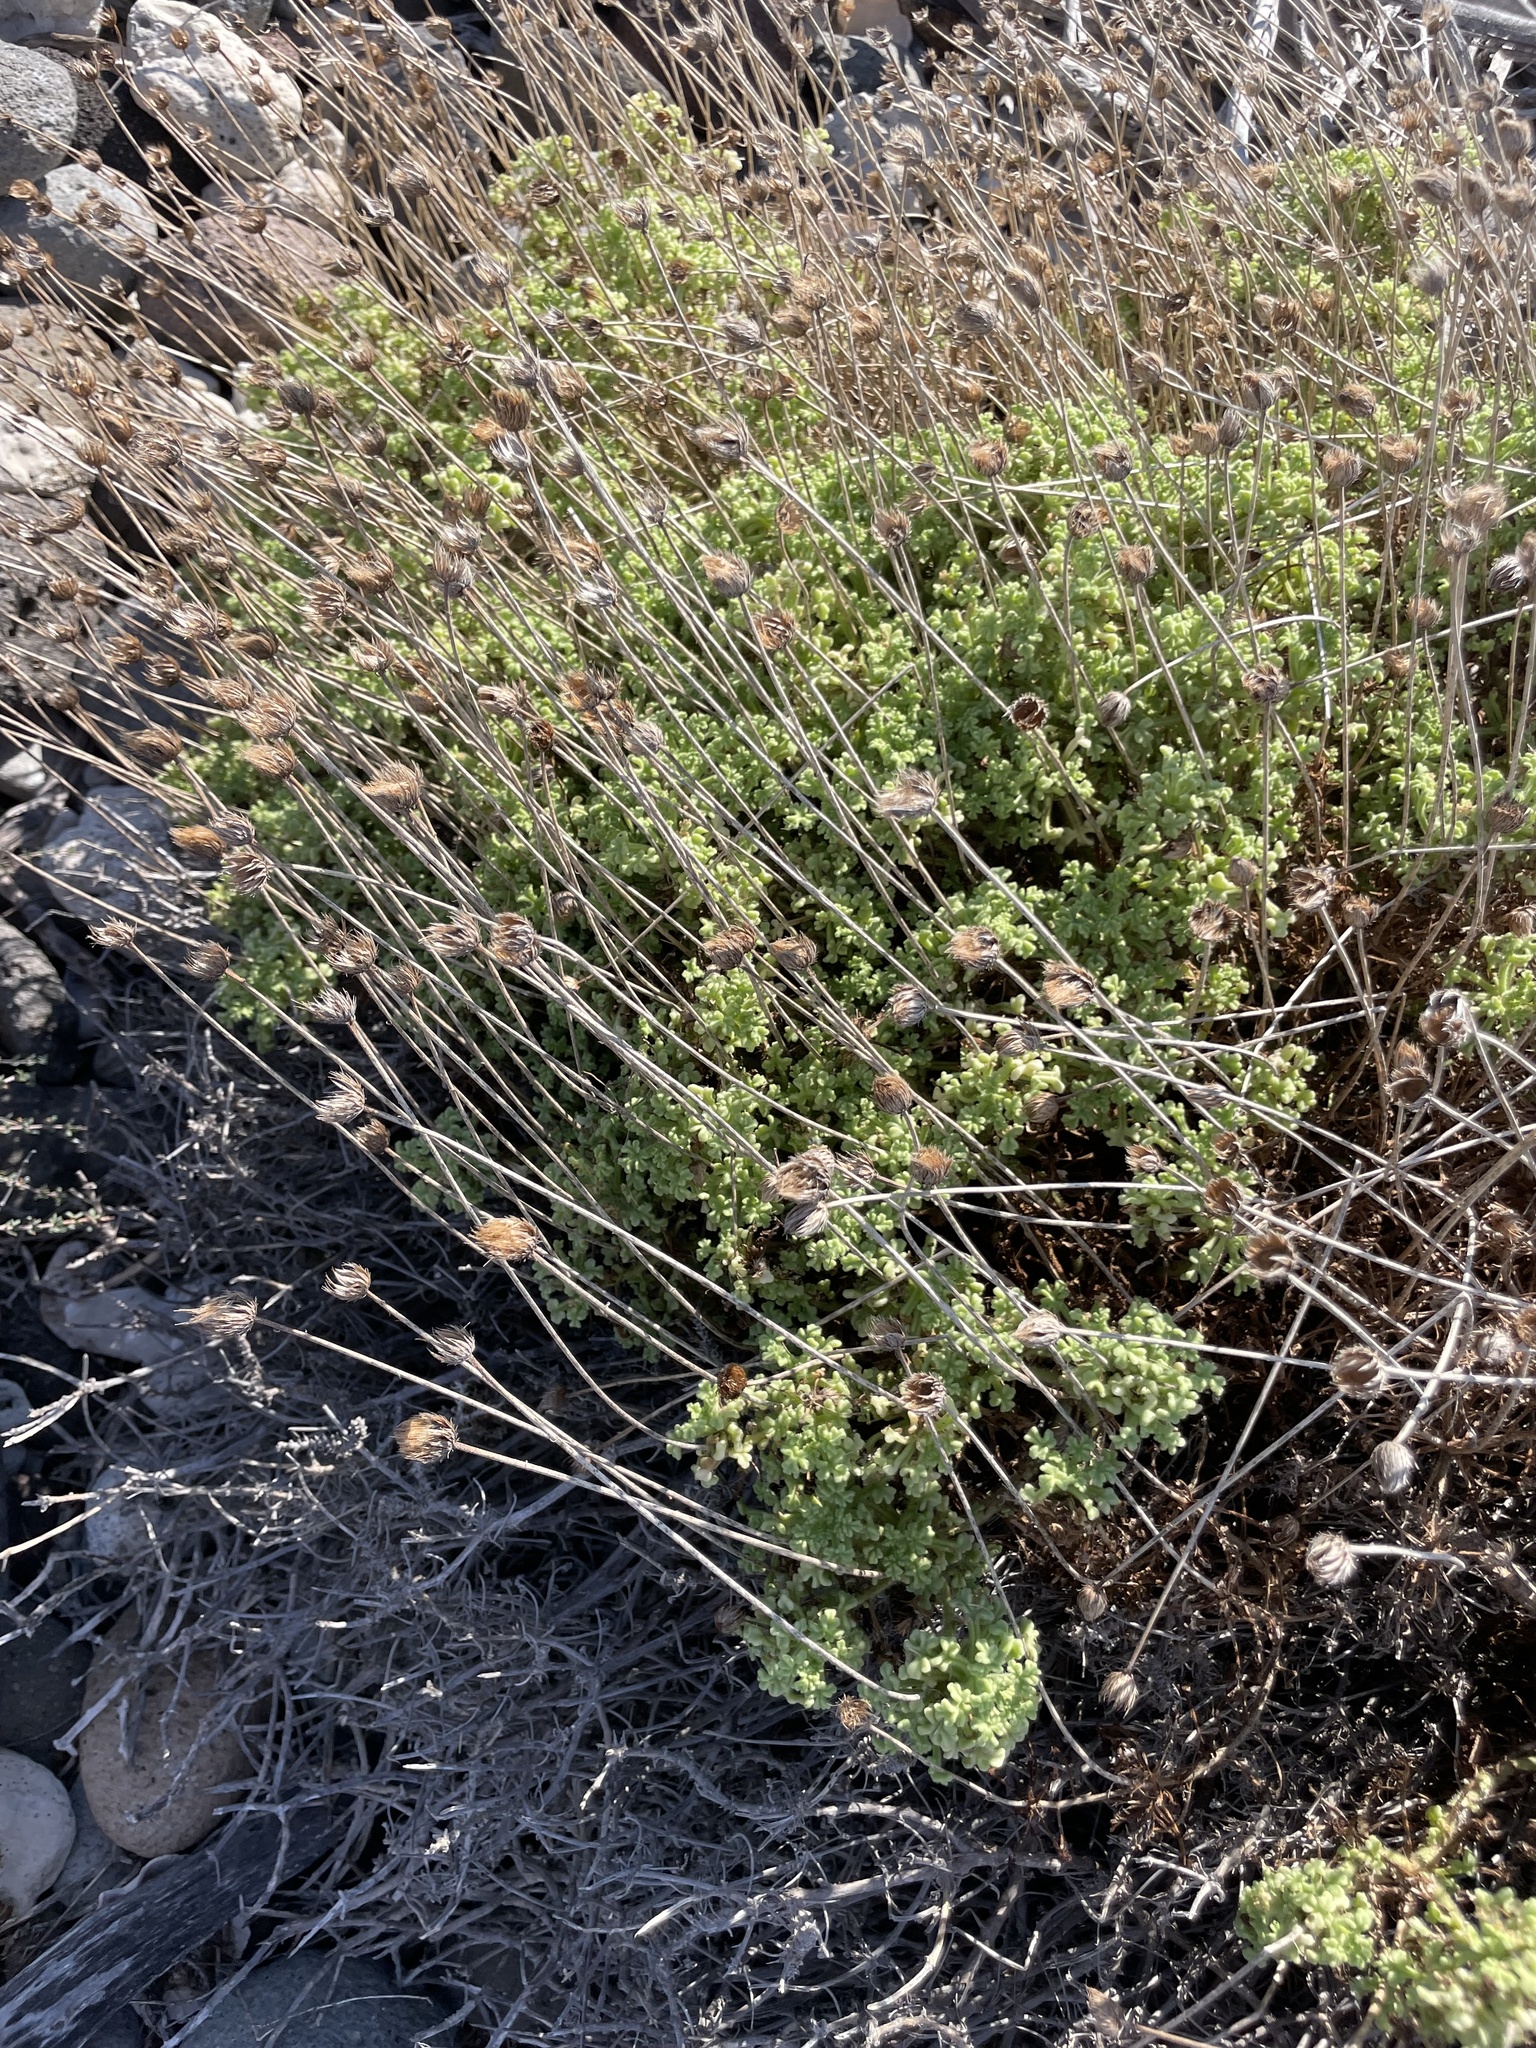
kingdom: Plantae
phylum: Tracheophyta
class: Magnoliopsida
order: Asterales
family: Asteraceae
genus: Hofmeisteria
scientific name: Hofmeisteria fasciculata
